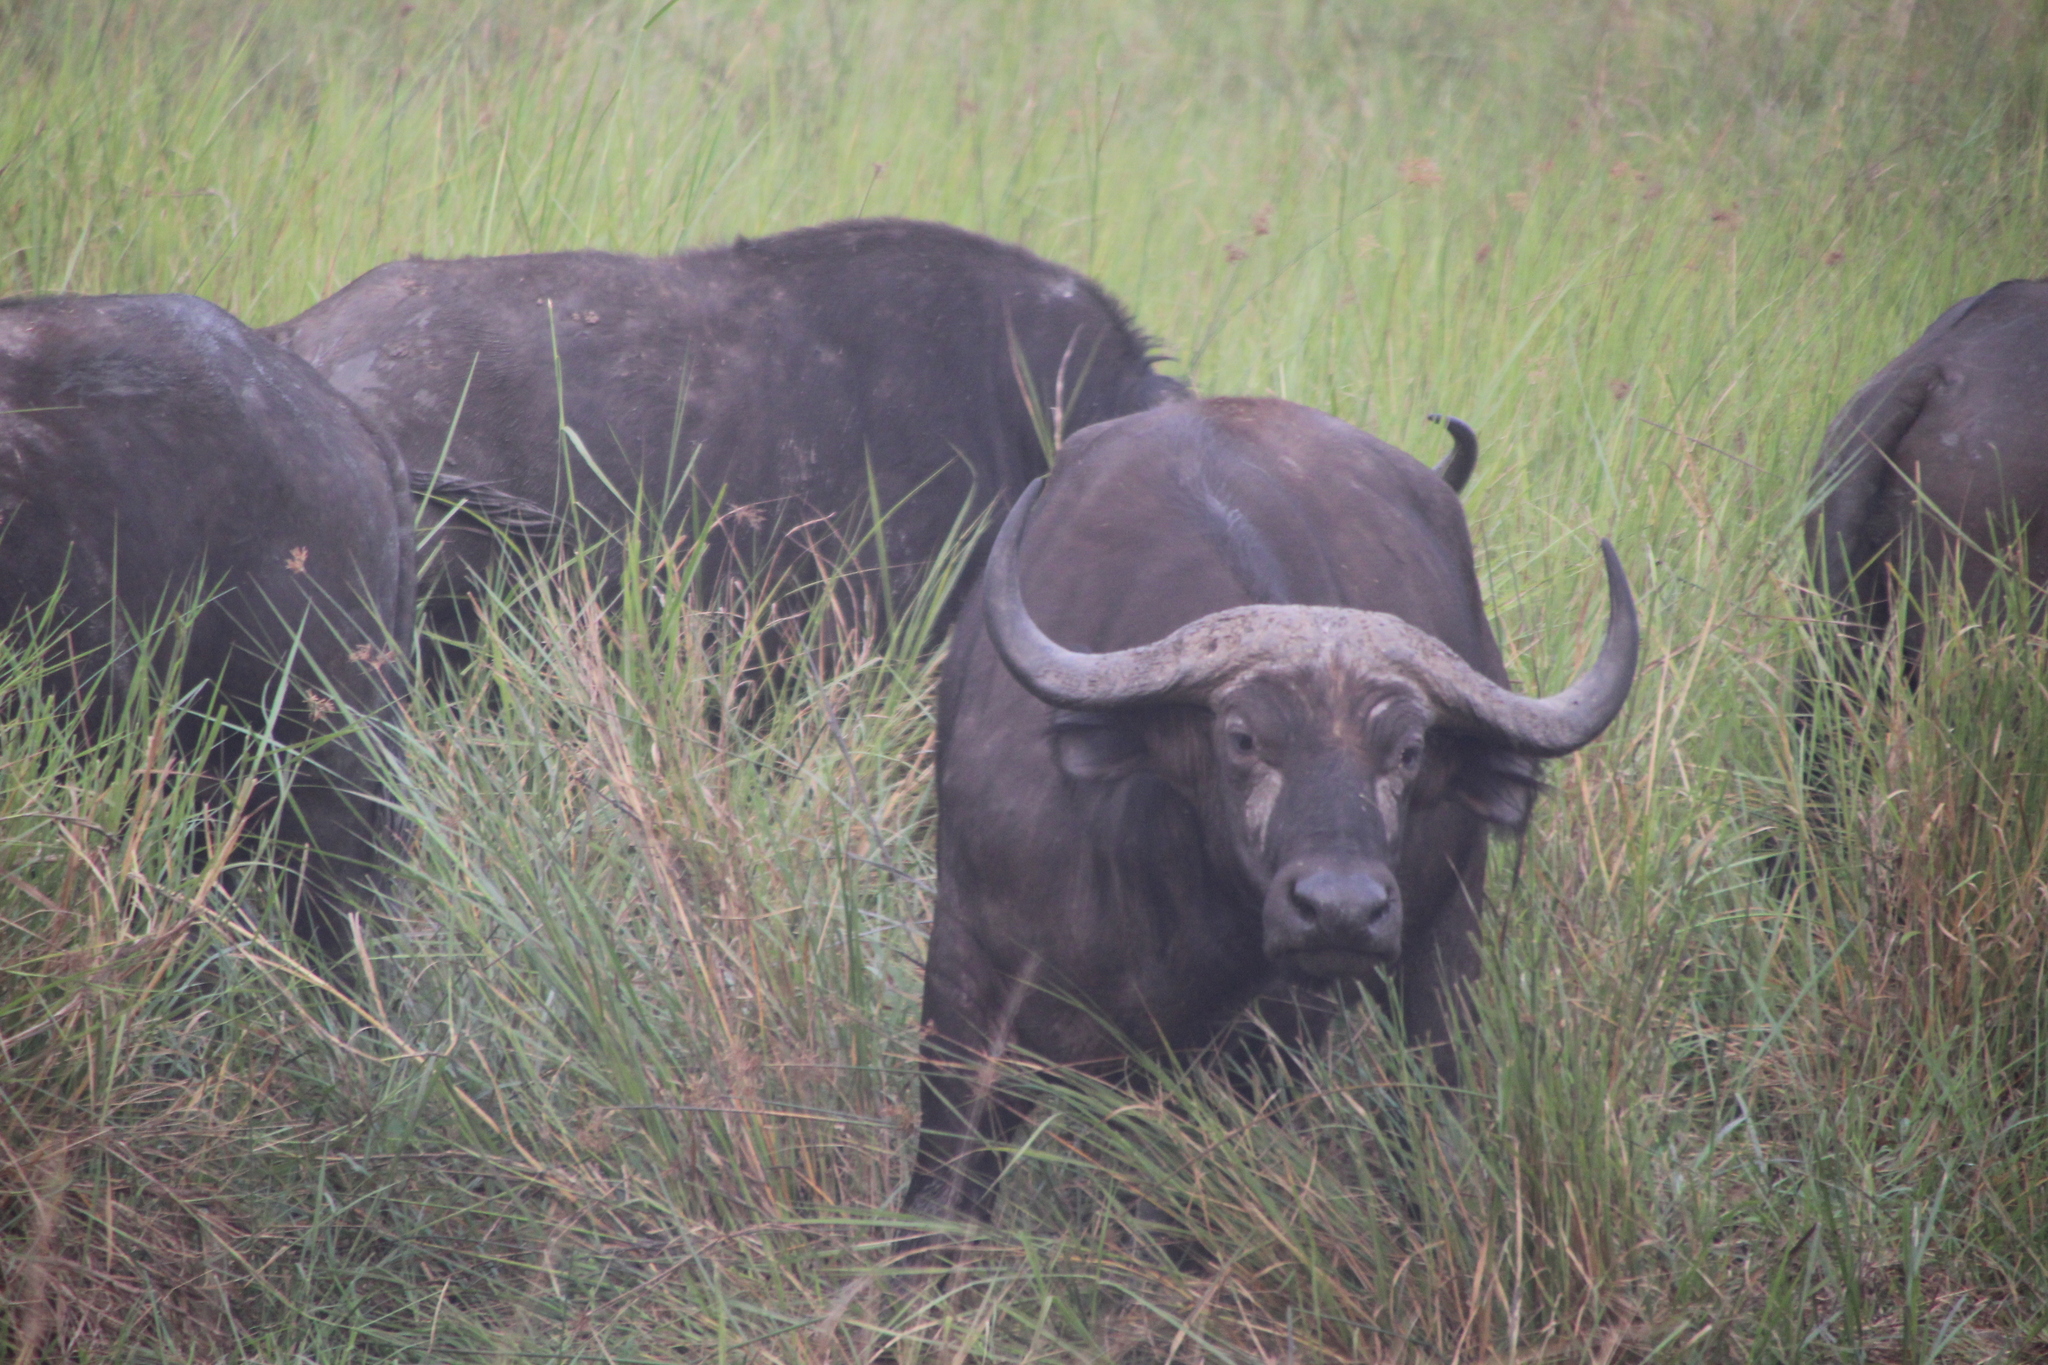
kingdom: Animalia
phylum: Chordata
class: Mammalia
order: Artiodactyla
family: Bovidae
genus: Syncerus
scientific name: Syncerus caffer
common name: African buffalo
